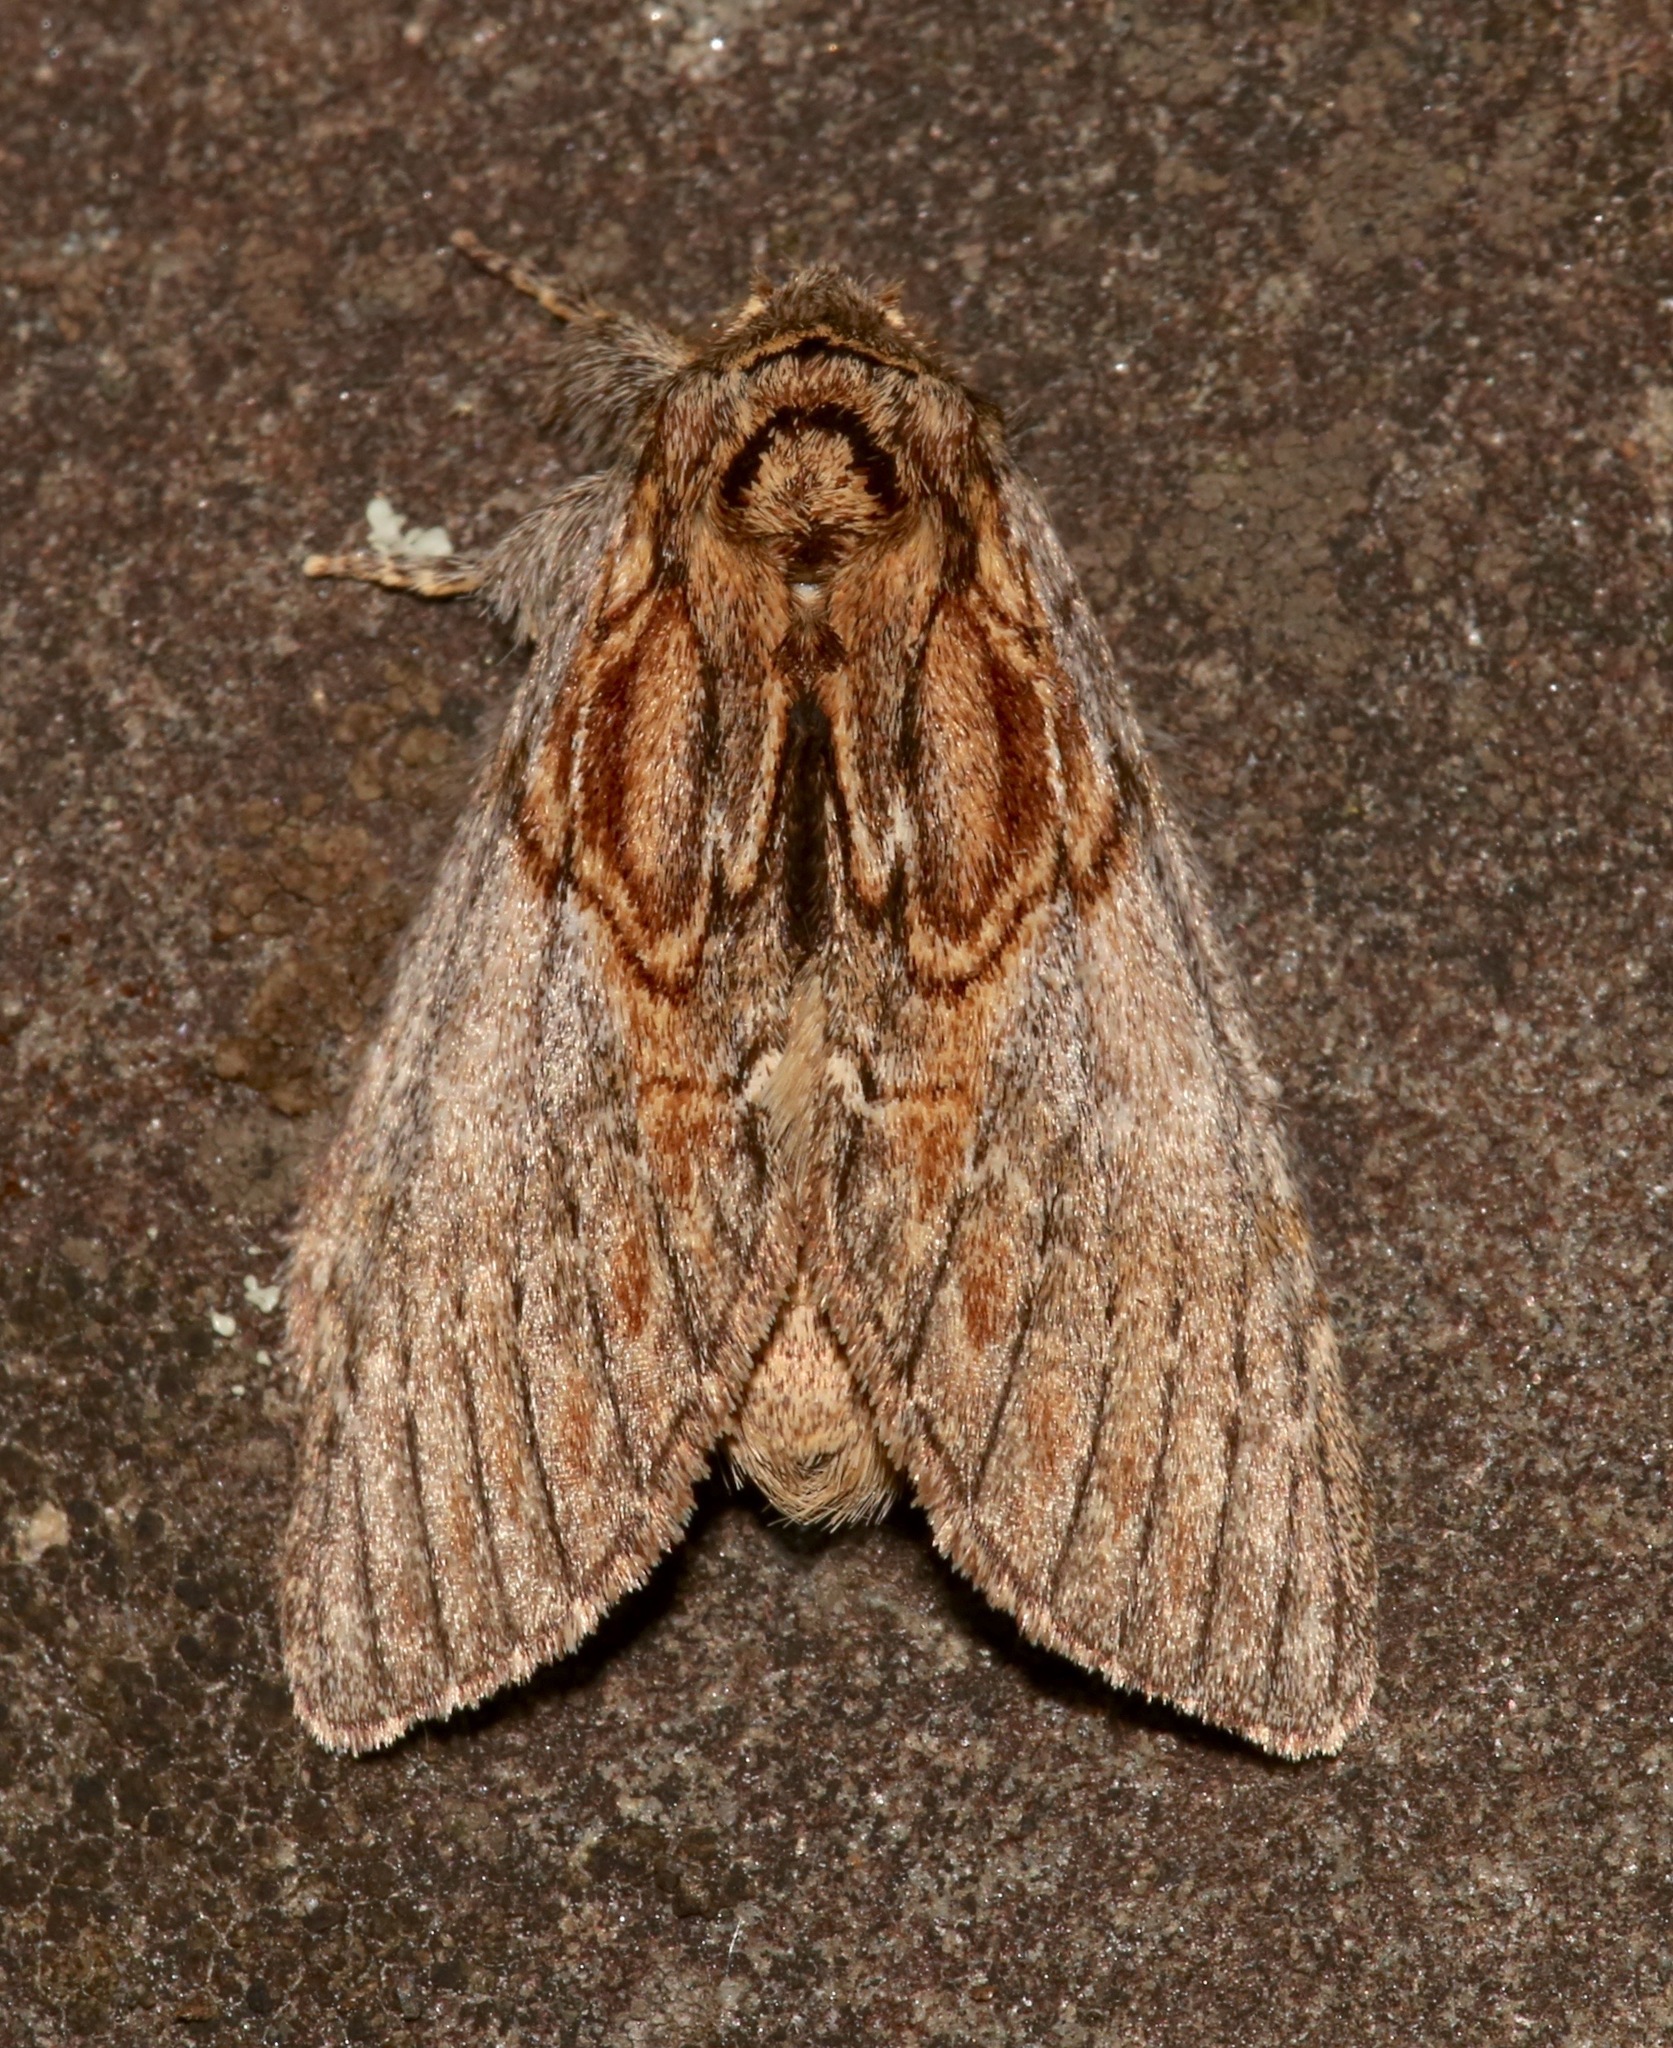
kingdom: Animalia
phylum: Arthropoda
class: Insecta
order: Lepidoptera
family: Notodontidae
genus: Peridea
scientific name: Peridea basitriens
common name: Oval-based prominent
